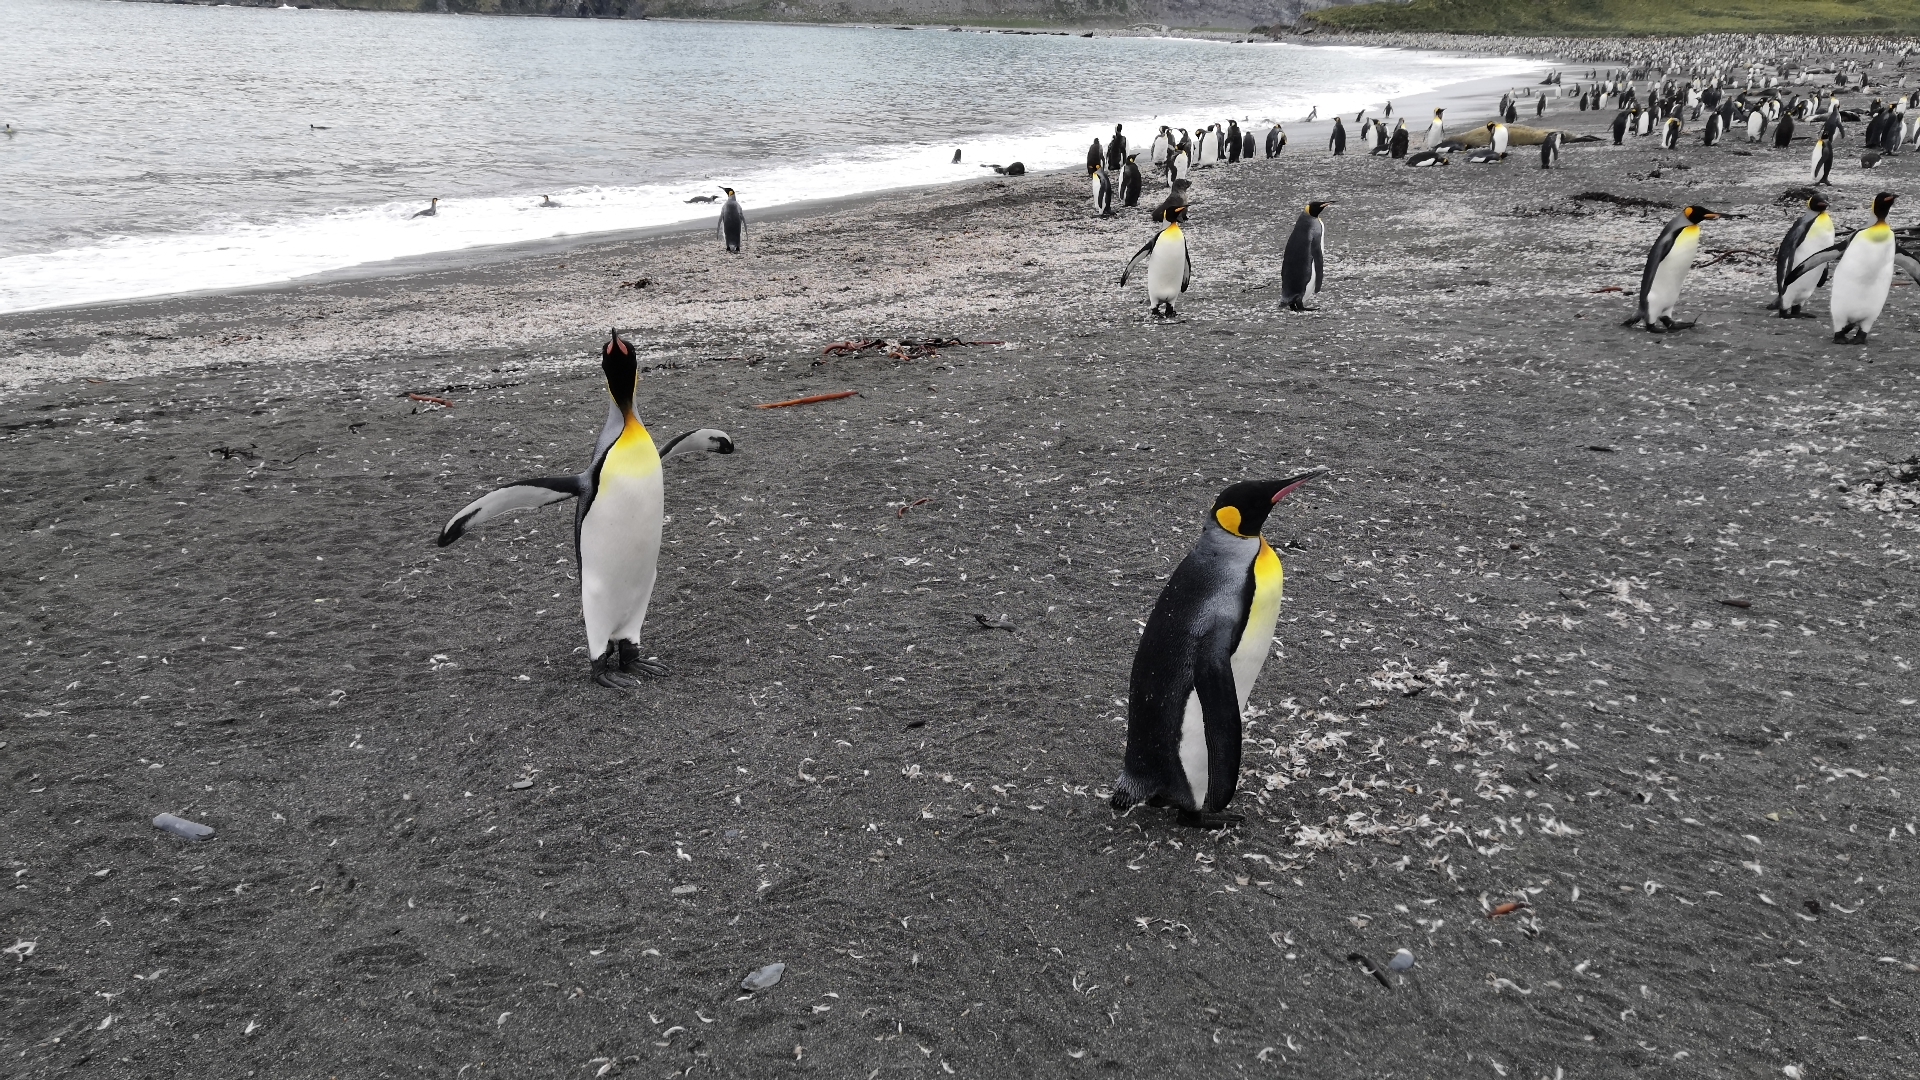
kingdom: Animalia
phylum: Chordata
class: Aves
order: Sphenisciformes
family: Spheniscidae
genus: Aptenodytes
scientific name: Aptenodytes patagonicus
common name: King penguin
